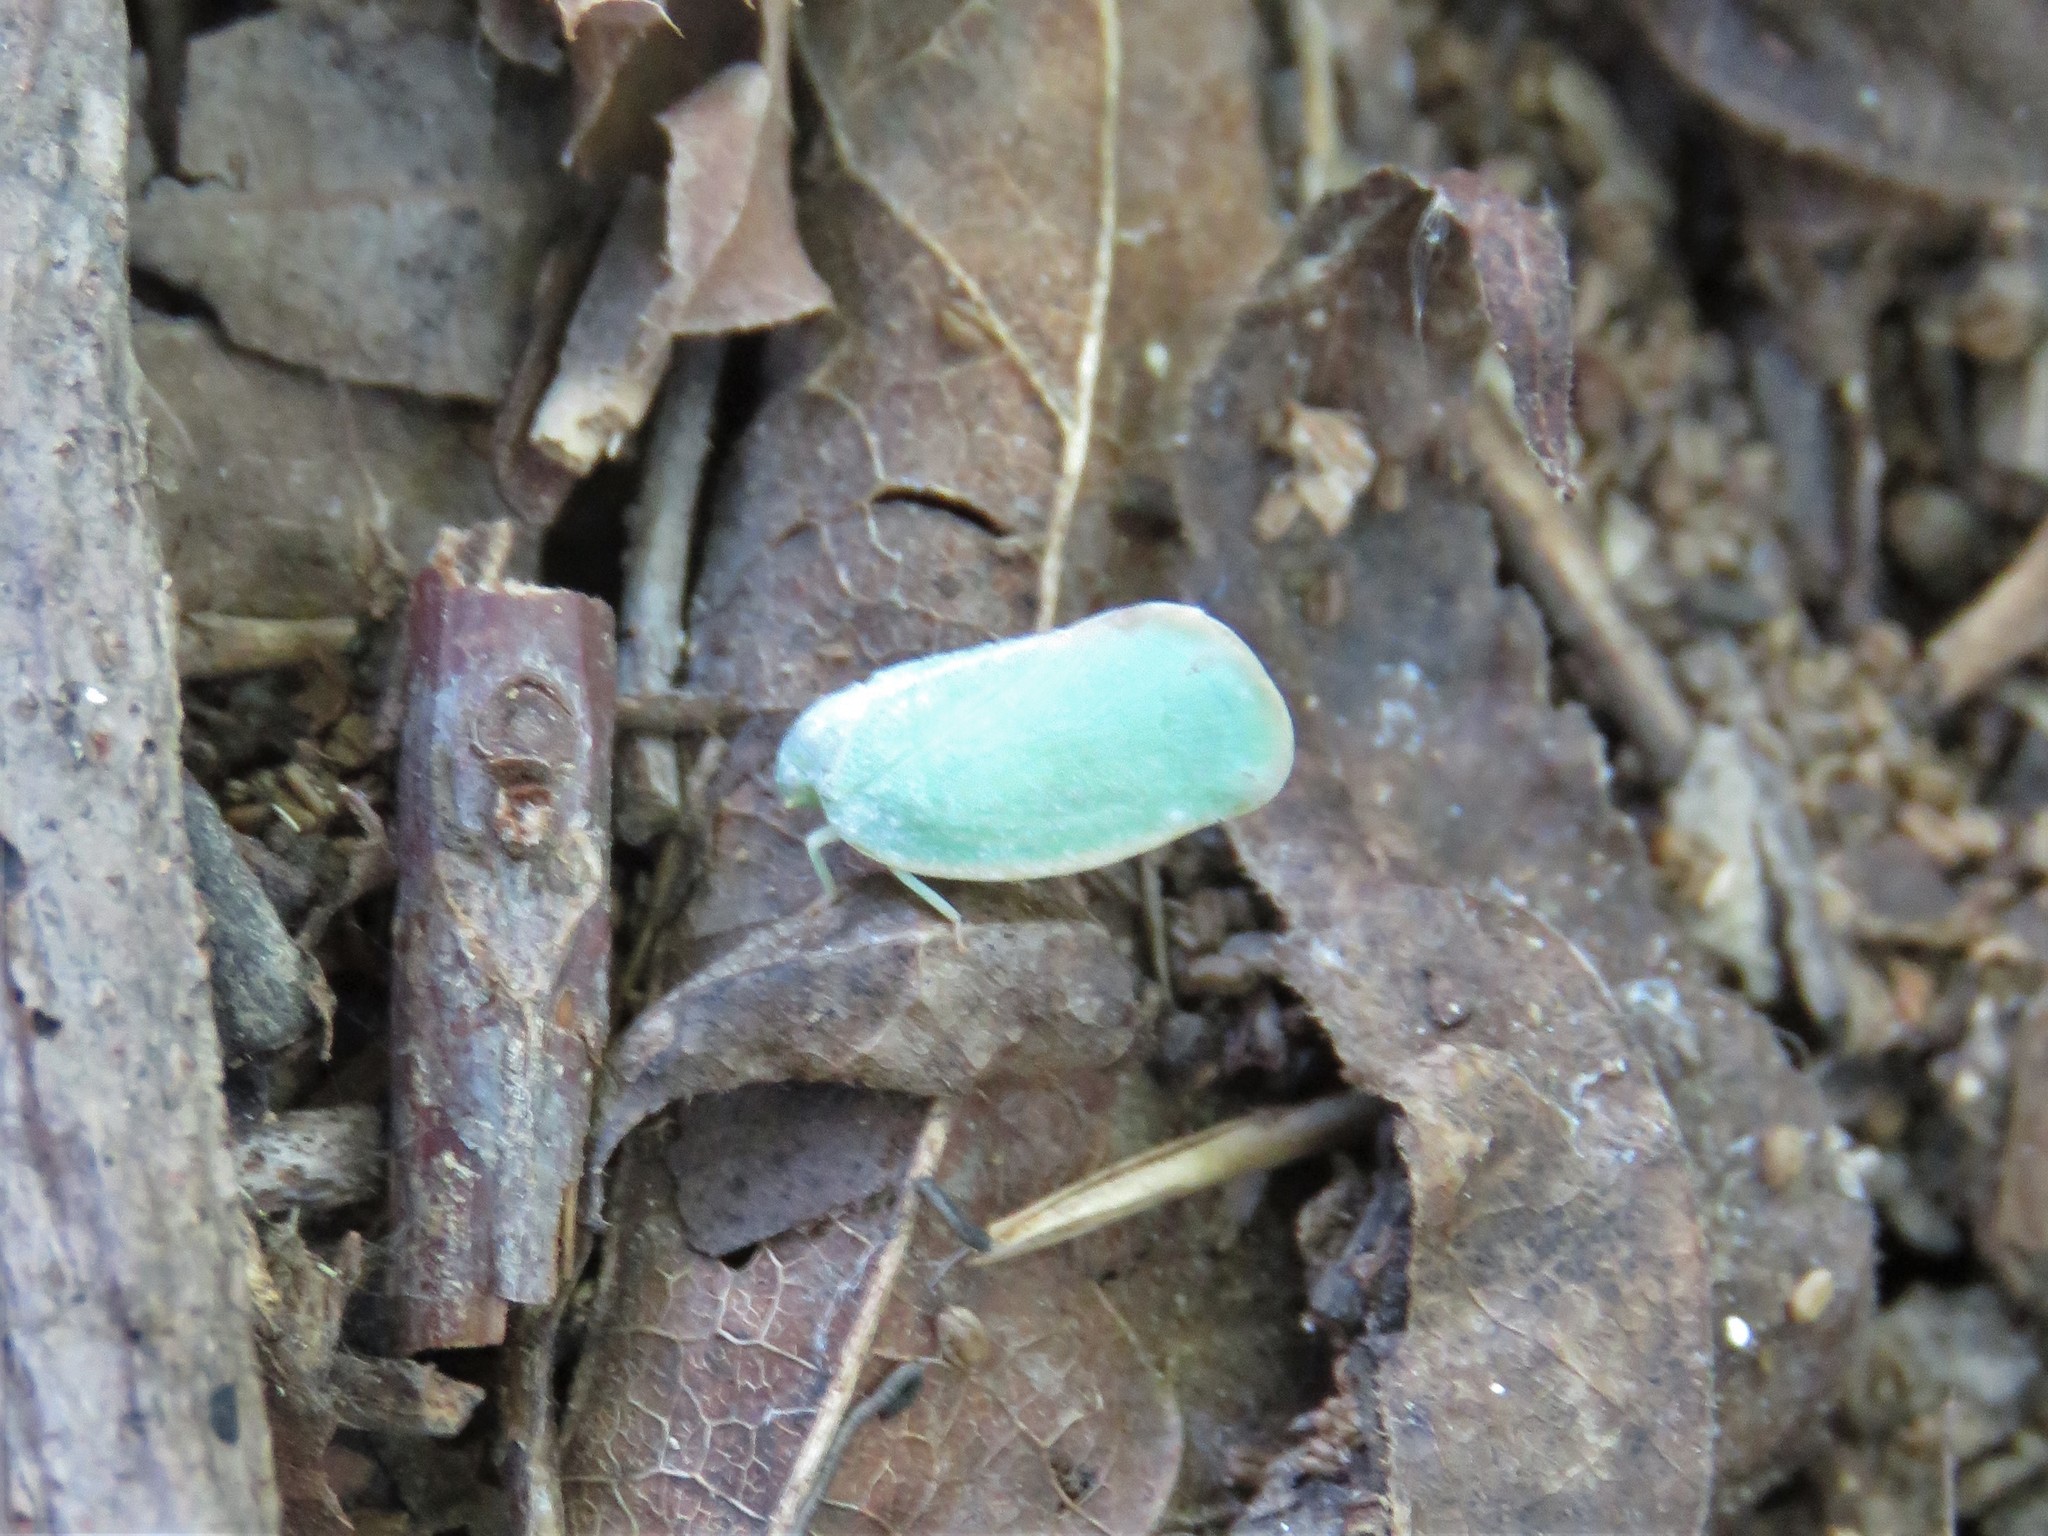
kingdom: Animalia
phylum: Arthropoda
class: Insecta
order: Hemiptera
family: Flatidae
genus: Ormenoides
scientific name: Ormenoides venusta
